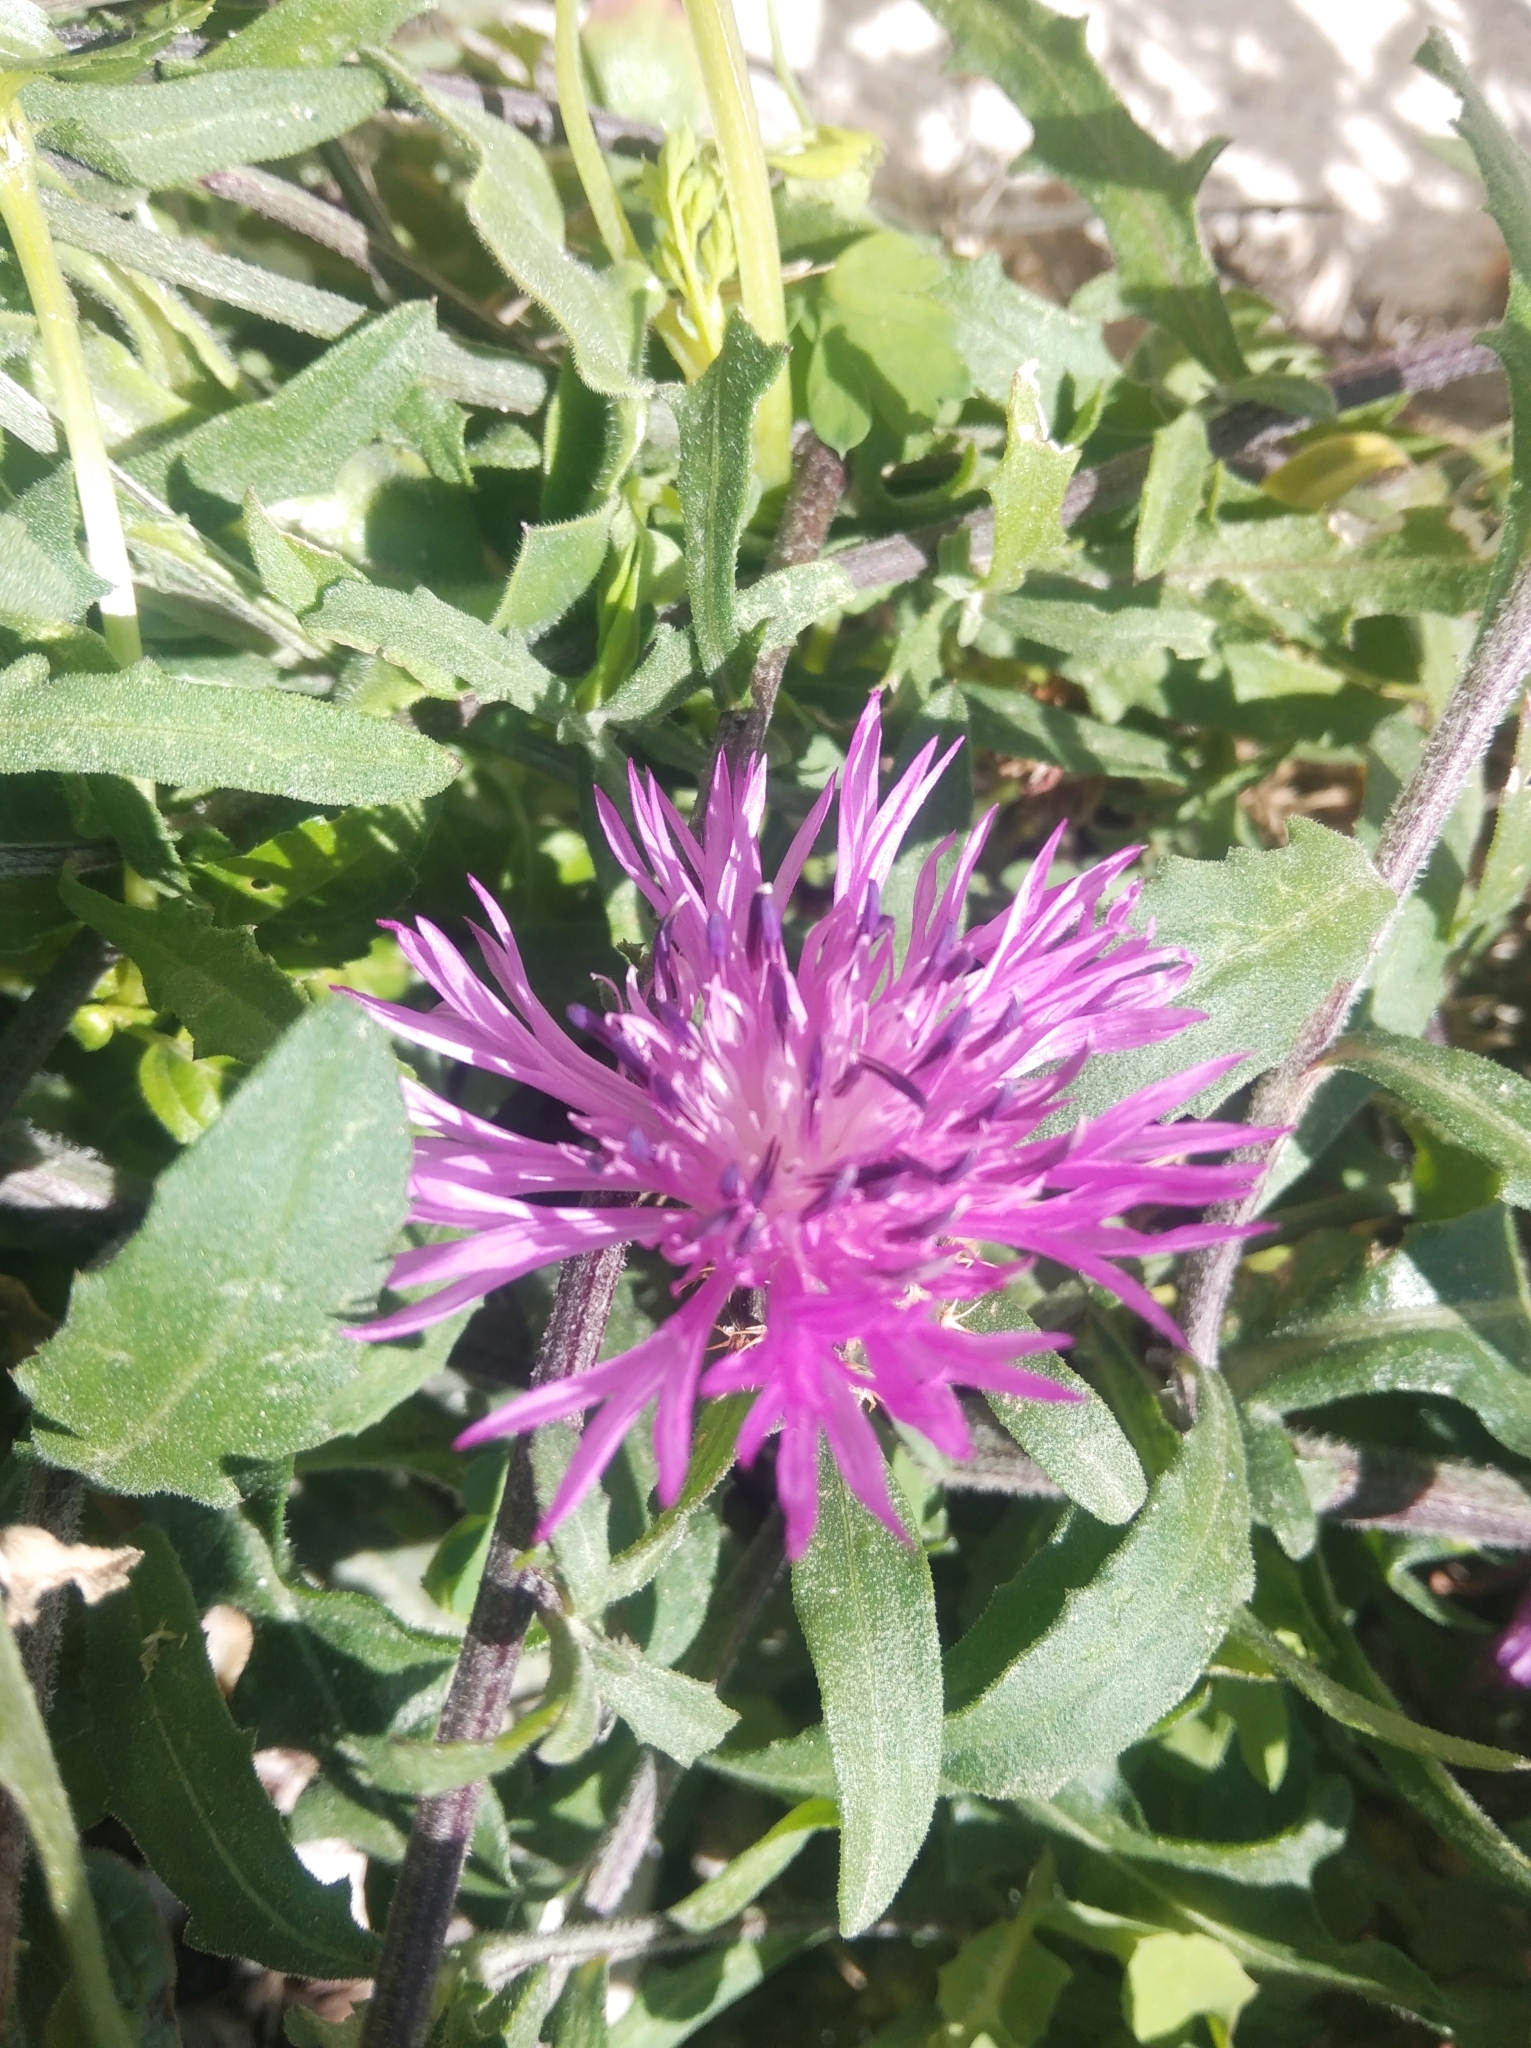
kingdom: Plantae
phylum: Tracheophyta
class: Magnoliopsida
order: Asterales
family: Asteraceae
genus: Centaurea
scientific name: Centaurea aspera
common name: Rough star-thistle
